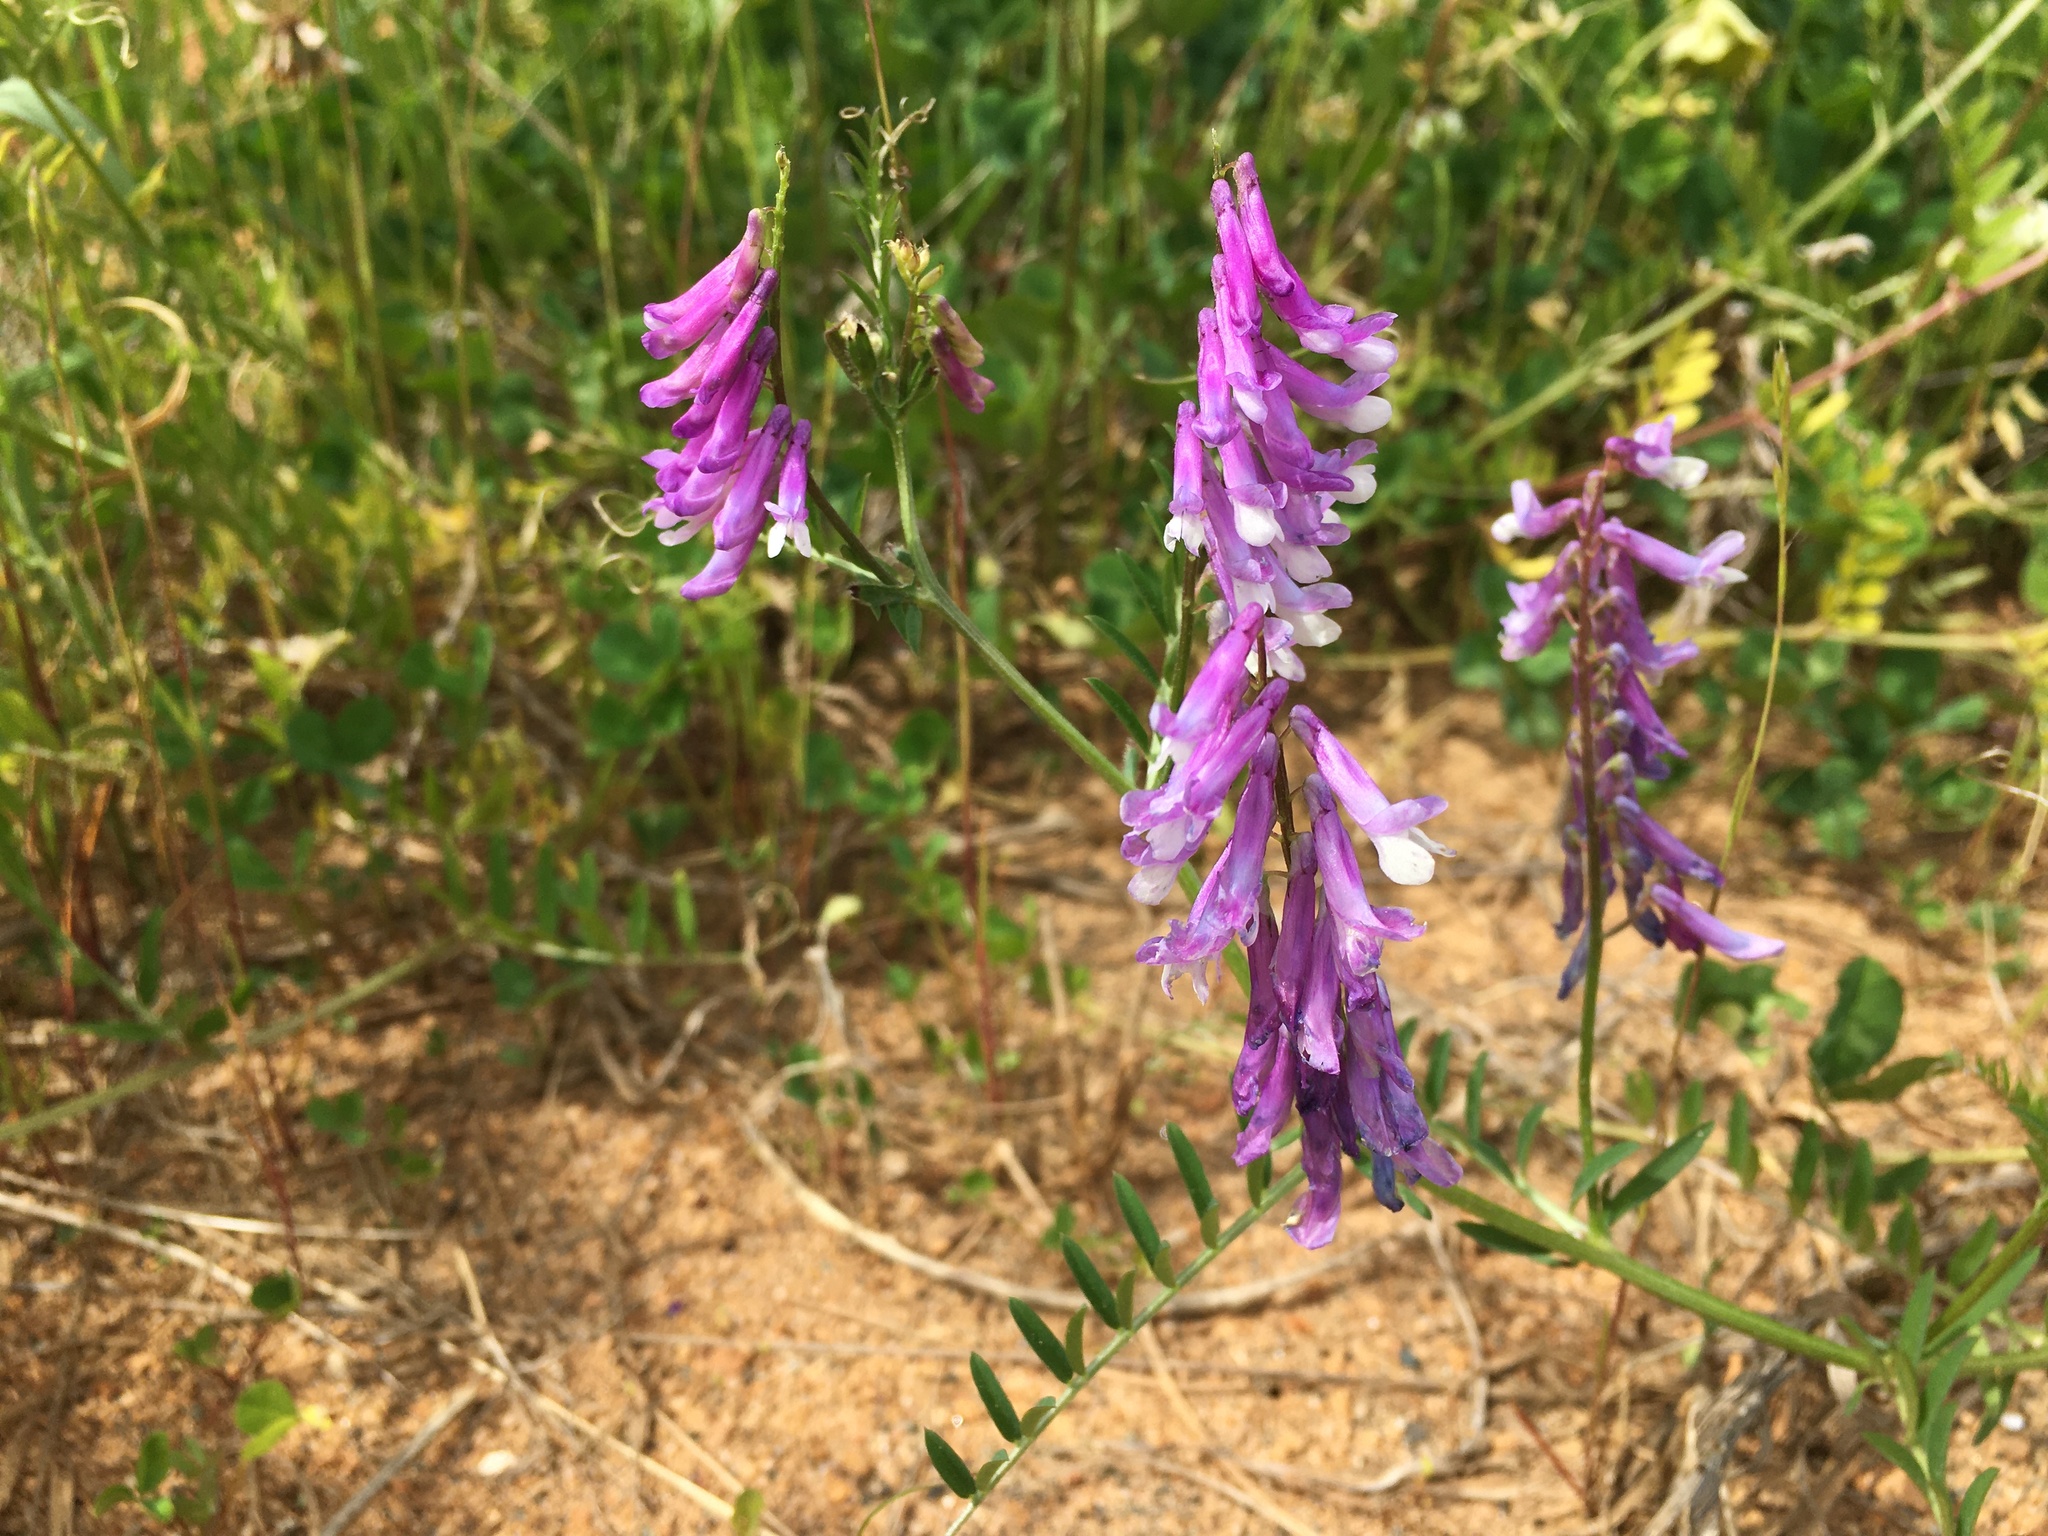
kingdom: Plantae
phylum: Tracheophyta
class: Magnoliopsida
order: Fabales
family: Fabaceae
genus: Vicia
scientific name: Vicia villosa
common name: Fodder vetch
